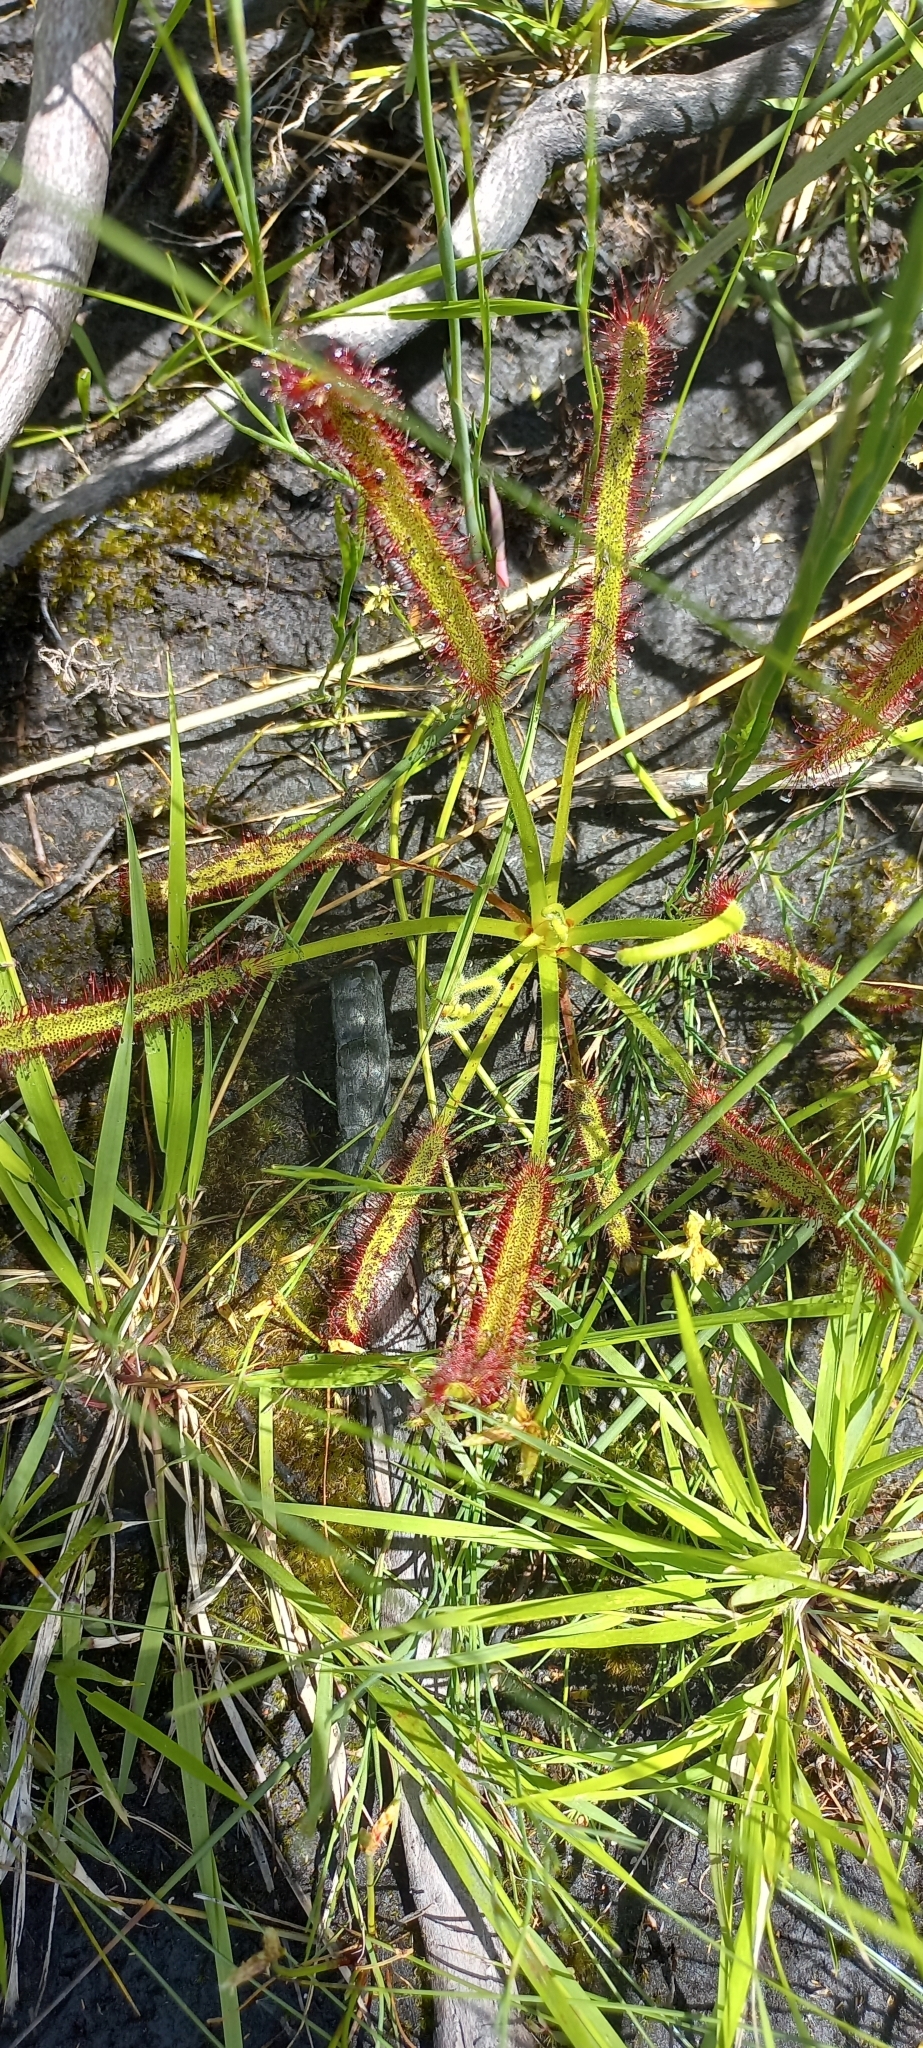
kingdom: Plantae
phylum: Tracheophyta
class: Magnoliopsida
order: Caryophyllales
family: Droseraceae
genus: Drosera
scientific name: Drosera capensis
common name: Cape sundew
